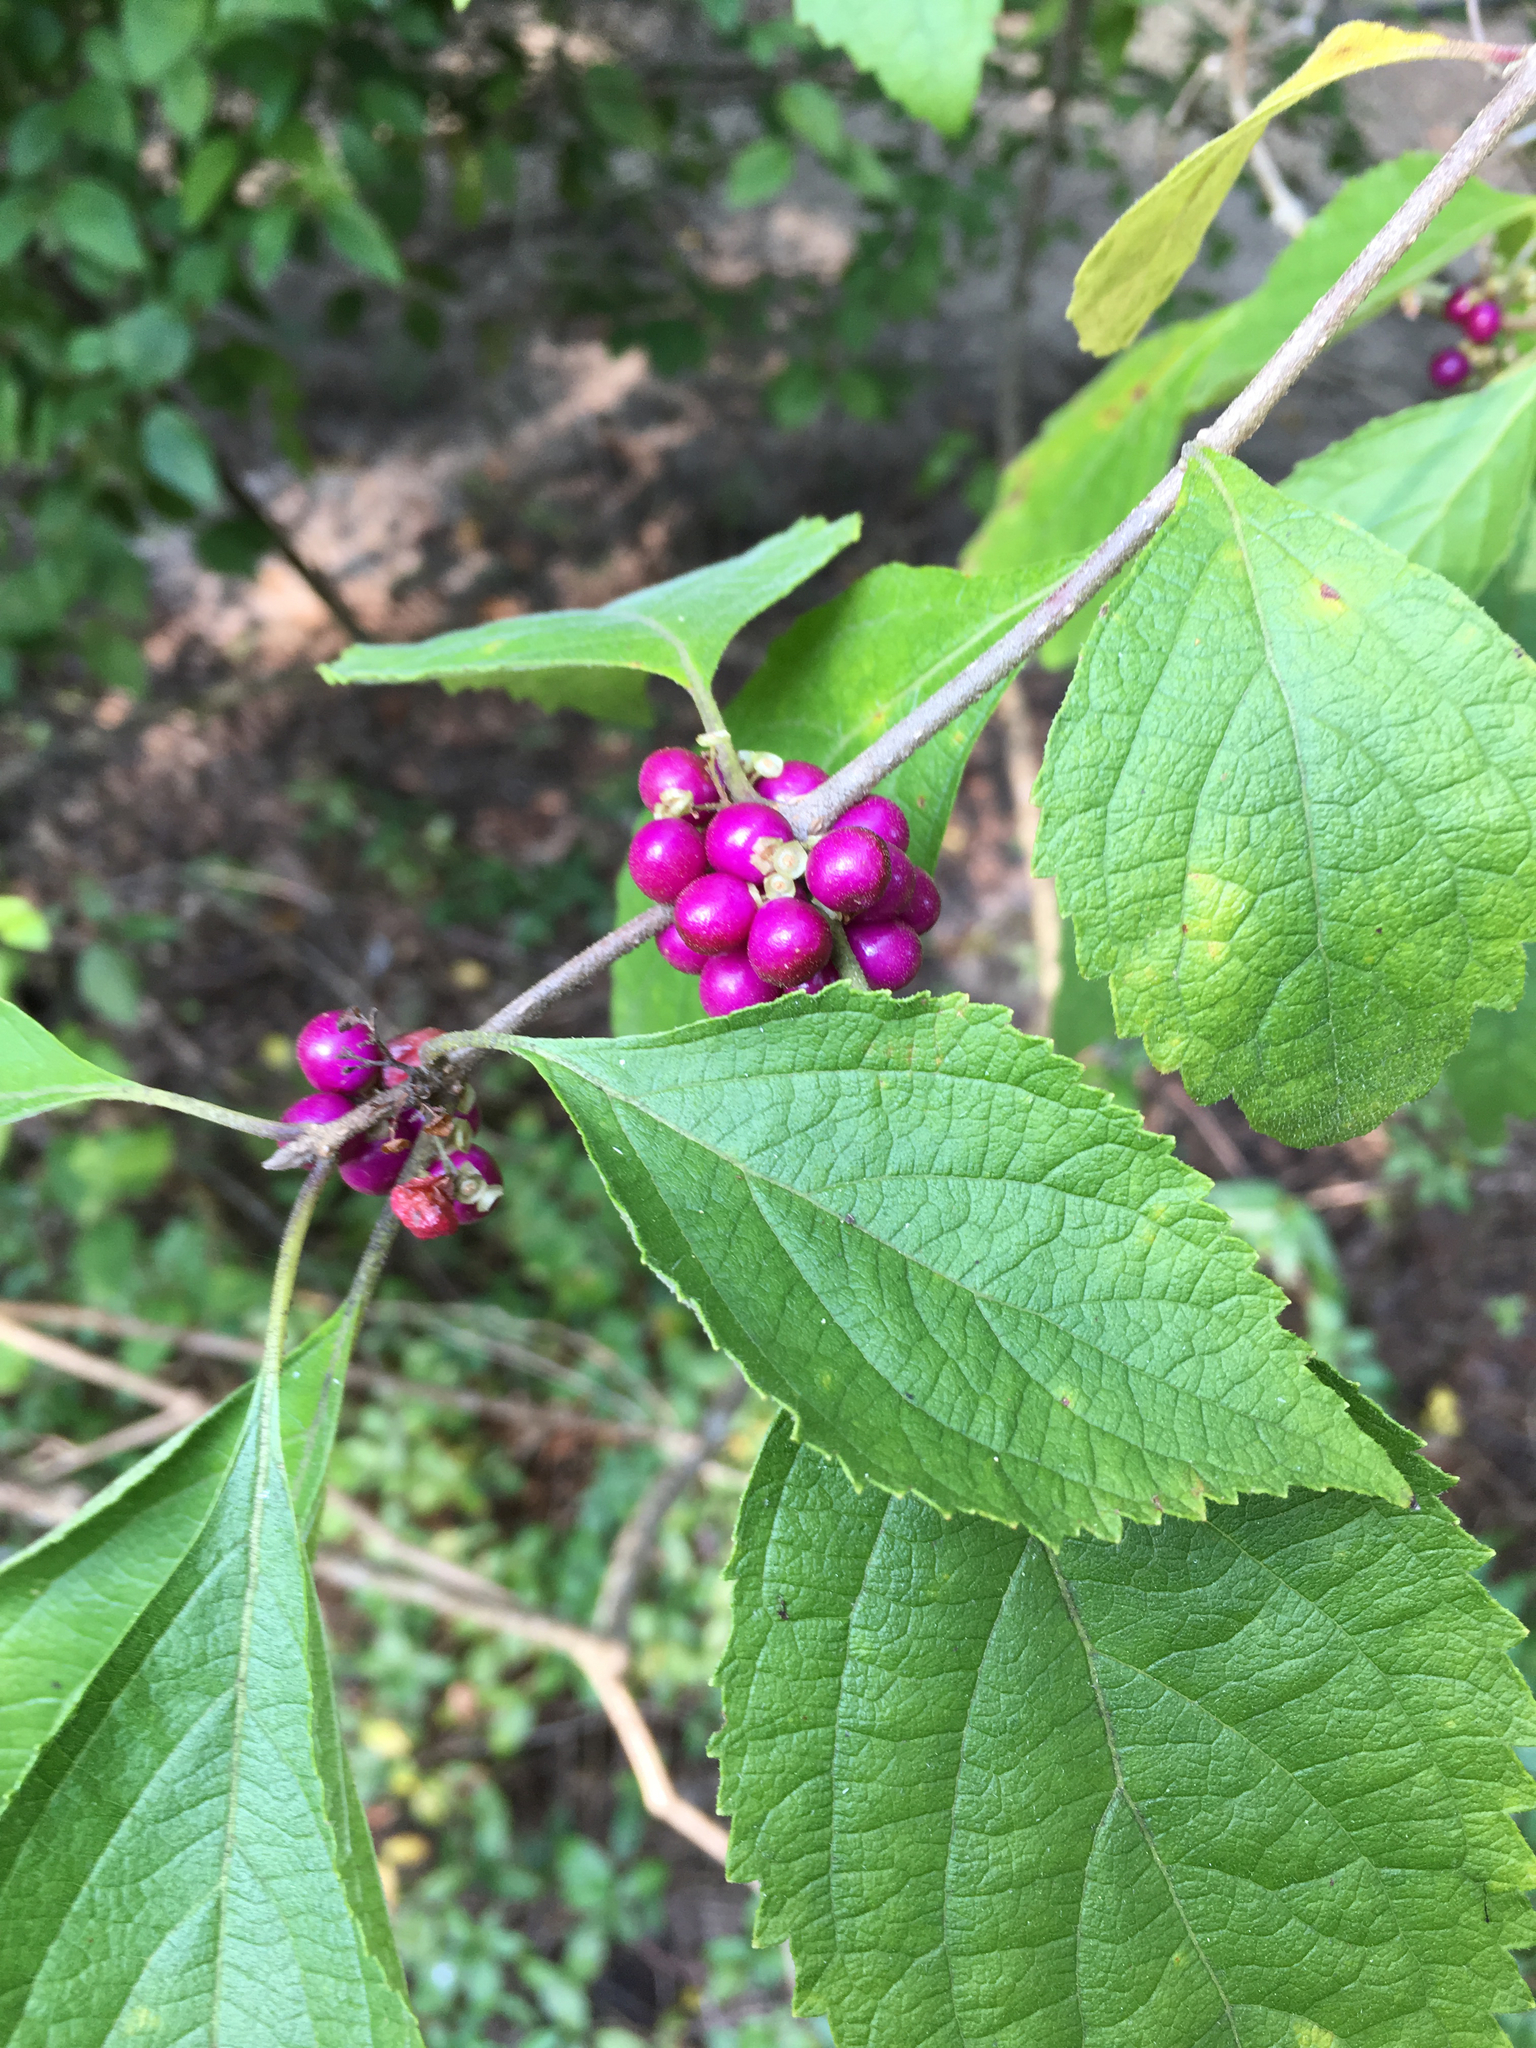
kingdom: Plantae
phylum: Tracheophyta
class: Magnoliopsida
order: Lamiales
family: Lamiaceae
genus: Callicarpa
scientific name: Callicarpa americana
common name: American beautyberry
